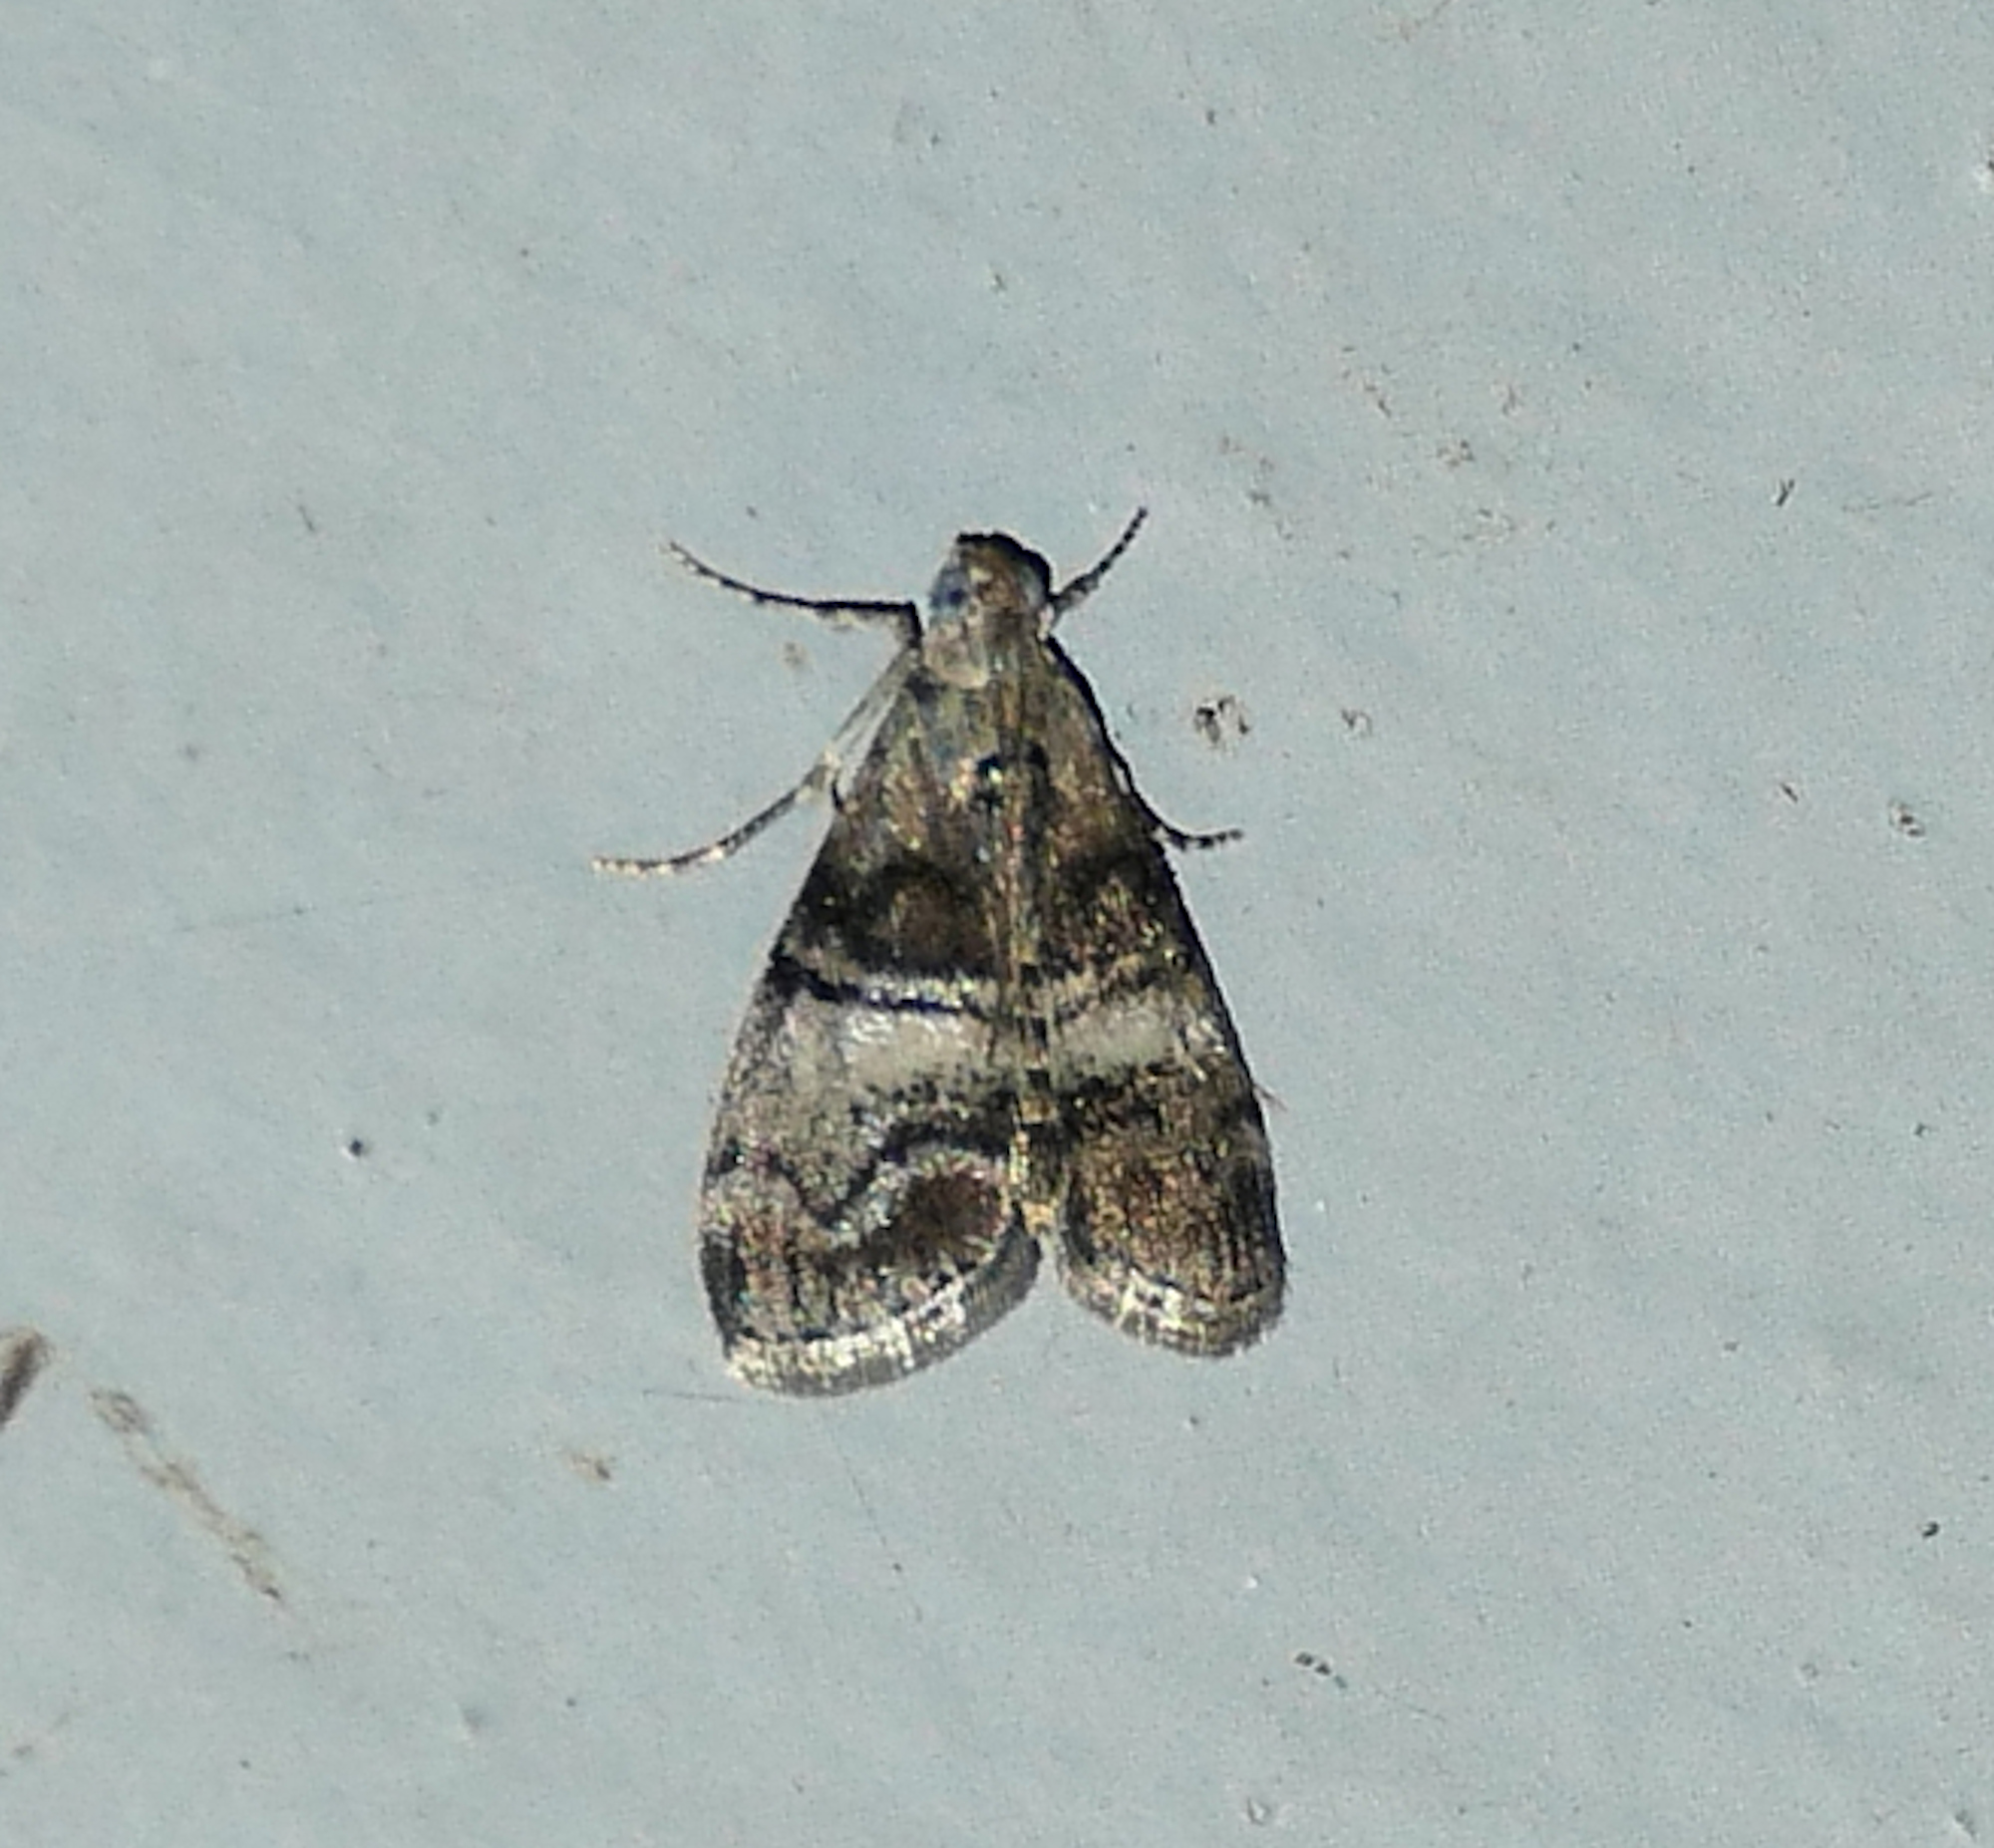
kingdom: Animalia
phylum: Arthropoda
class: Insecta
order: Lepidoptera
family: Pyralidae
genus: Pococera
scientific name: Pococera asperatella
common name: Maple webworm moth
